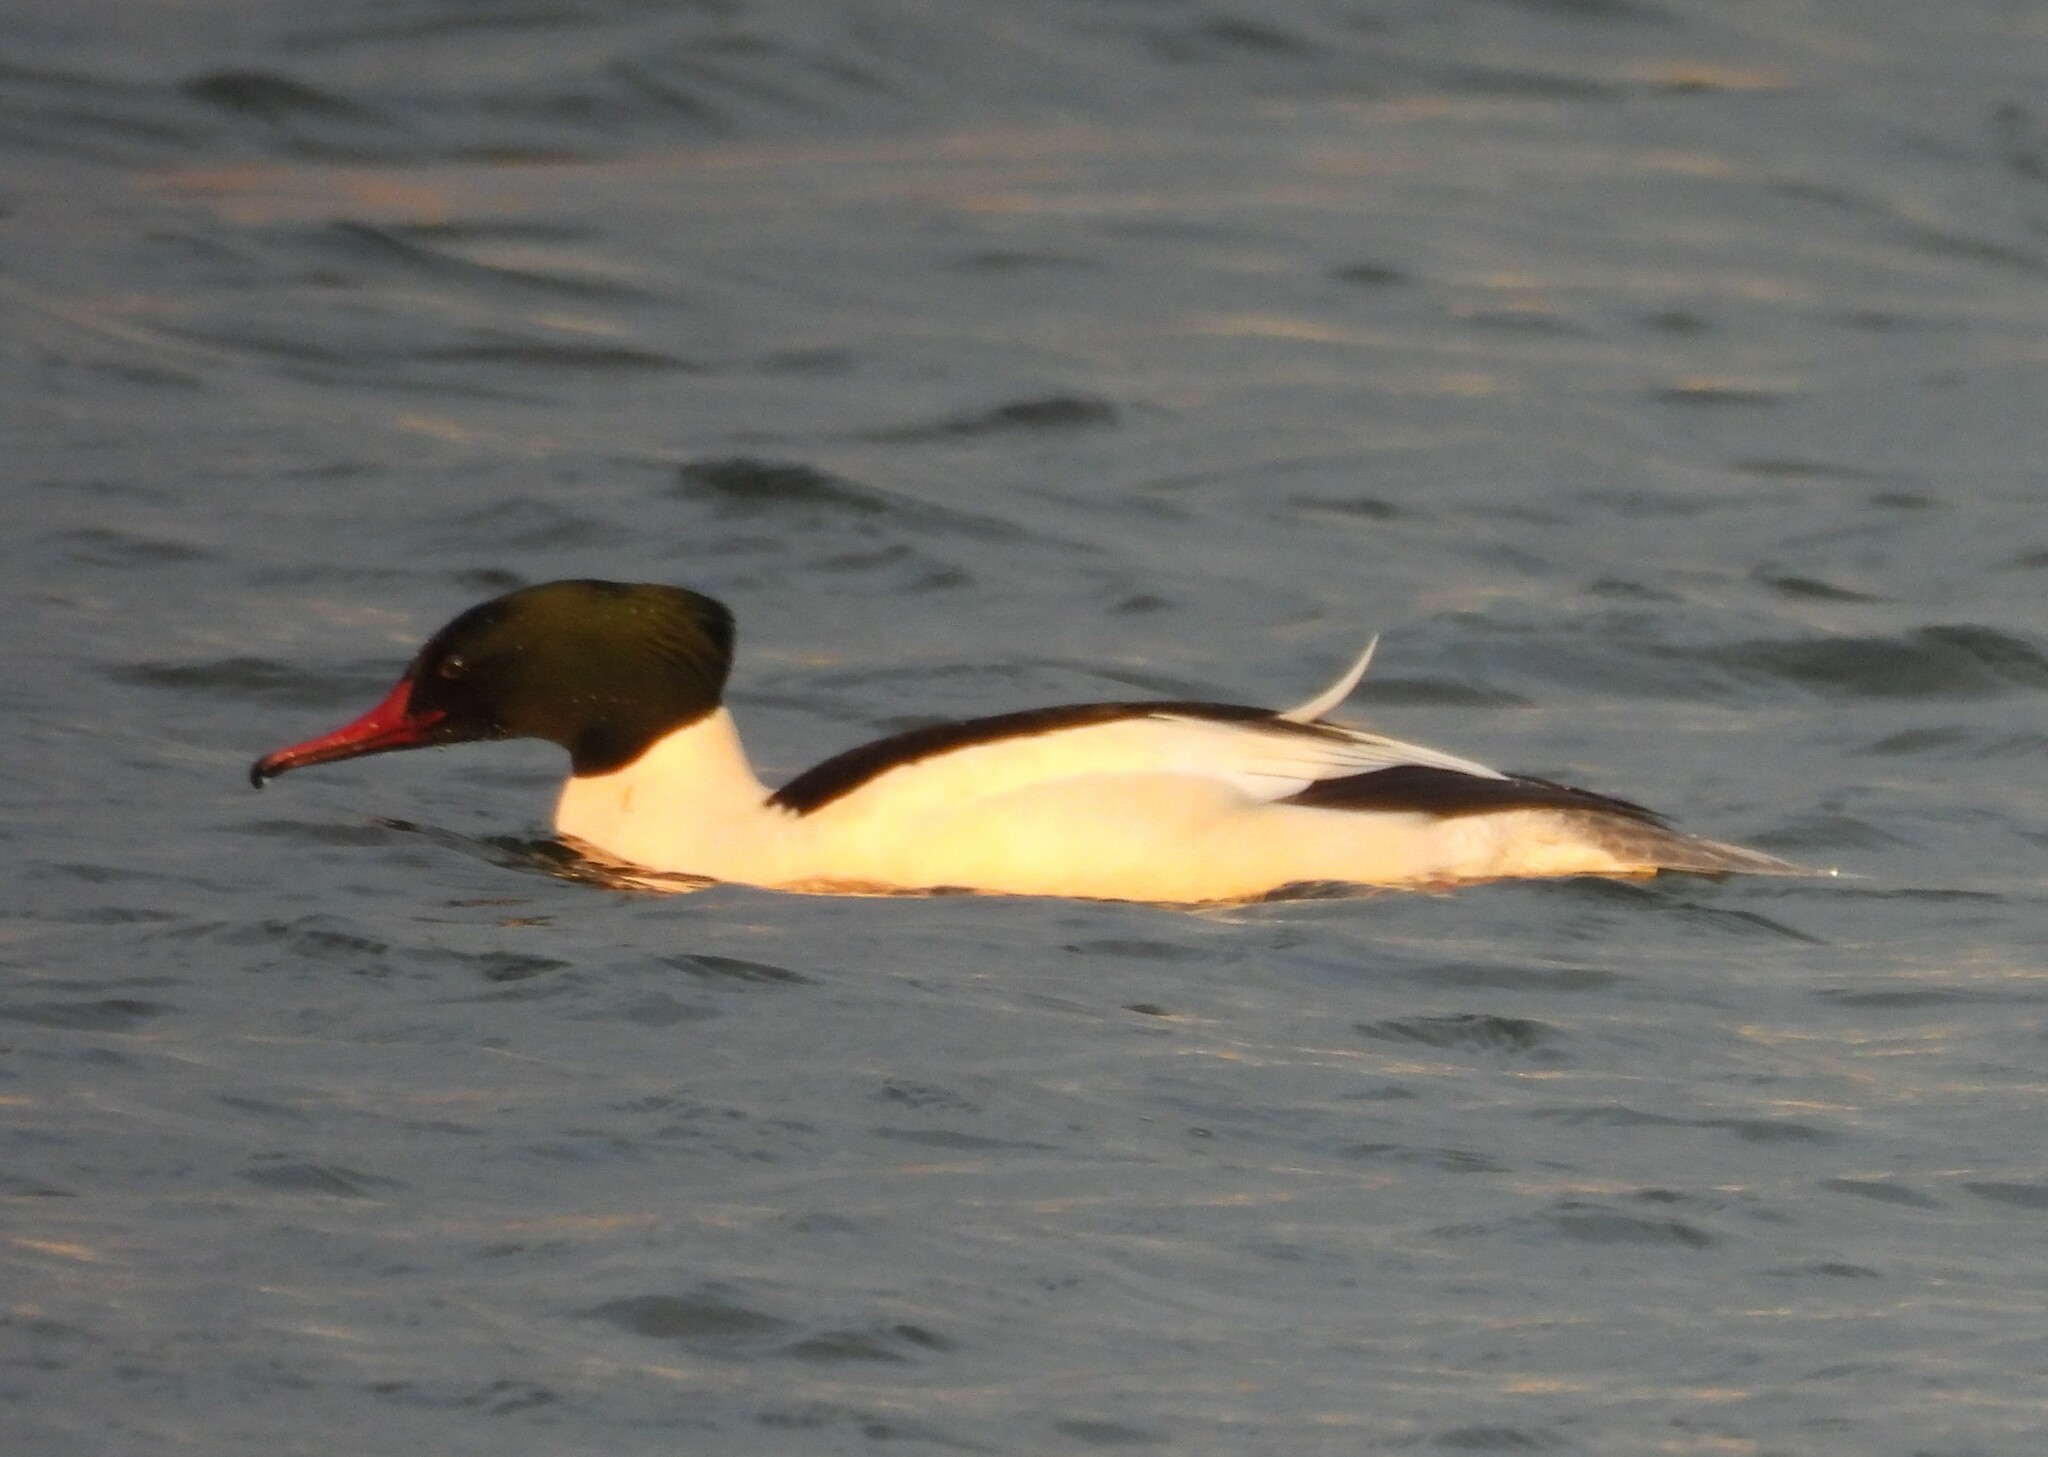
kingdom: Animalia
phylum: Chordata
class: Aves
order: Anseriformes
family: Anatidae
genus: Mergus
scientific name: Mergus merganser
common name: Common merganser
